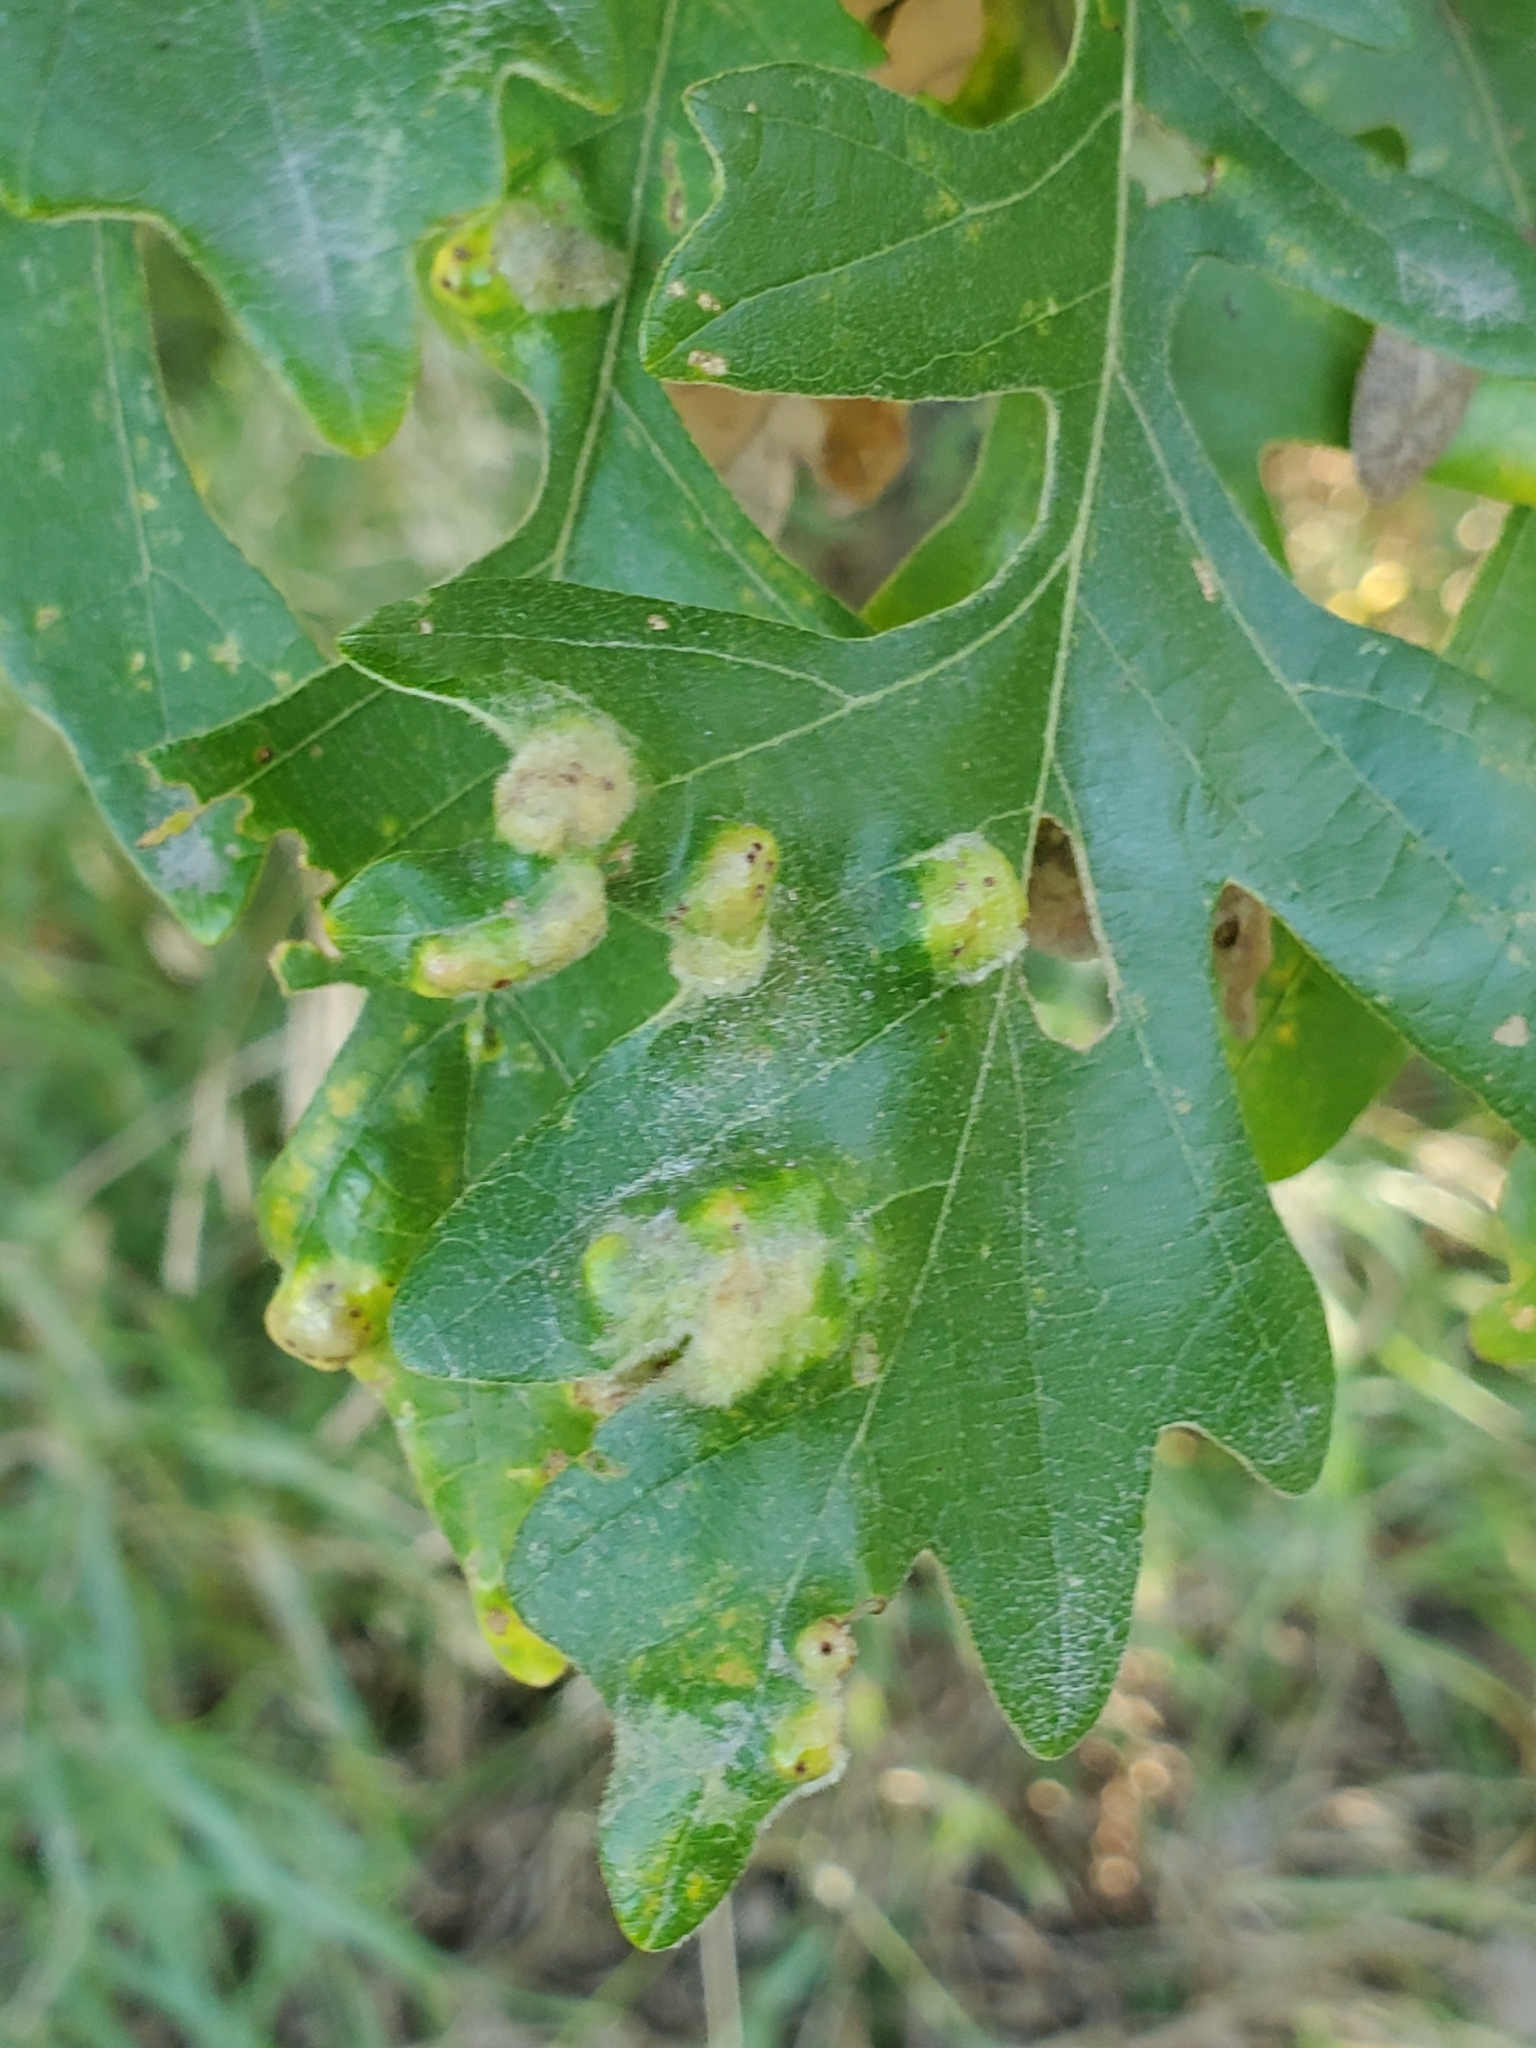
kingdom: Animalia
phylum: Arthropoda
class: Arachnida
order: Trombidiformes
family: Eriophyidae
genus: Aceria
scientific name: Aceria quercina
